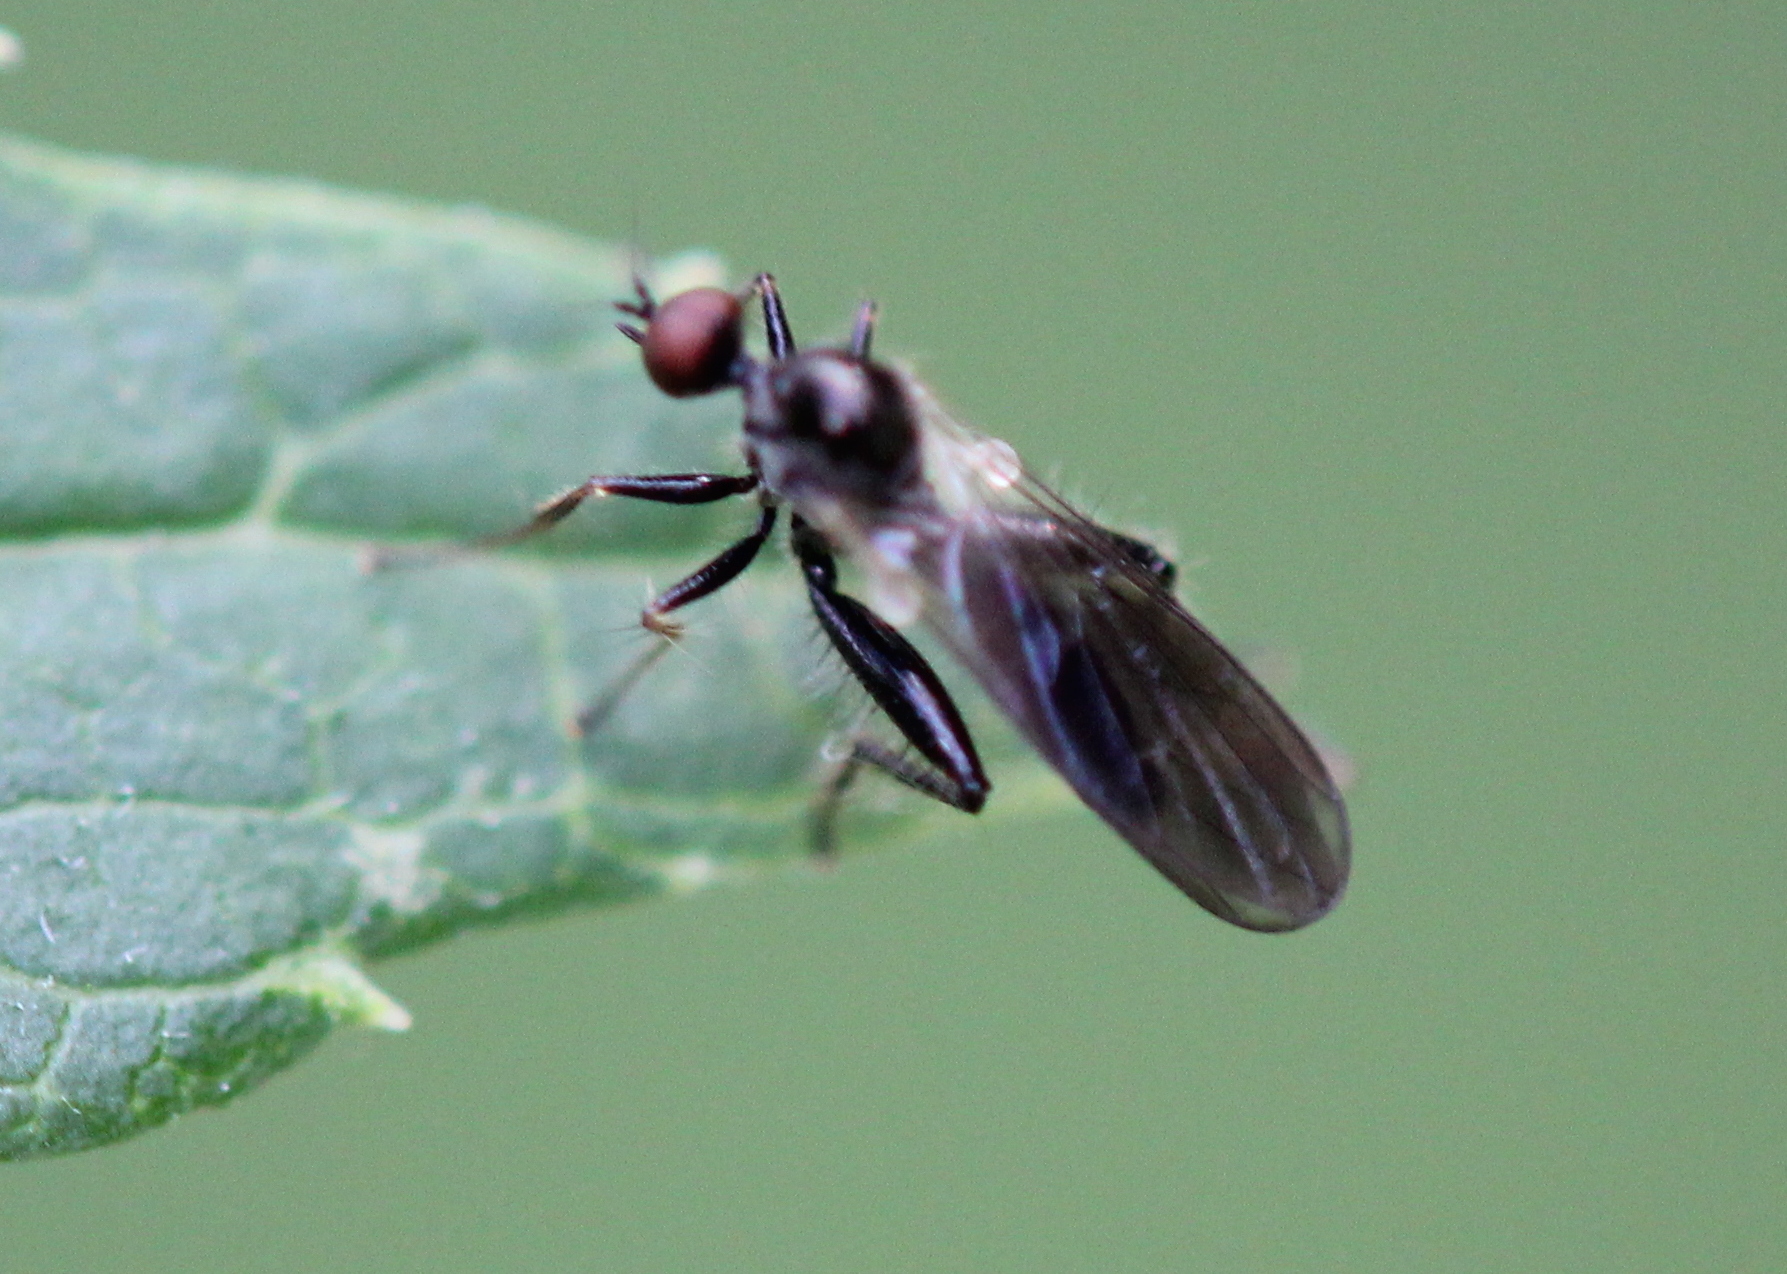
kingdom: Animalia
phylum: Arthropoda
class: Insecta
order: Diptera
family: Hybotidae
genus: Hybos
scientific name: Hybos reversus
